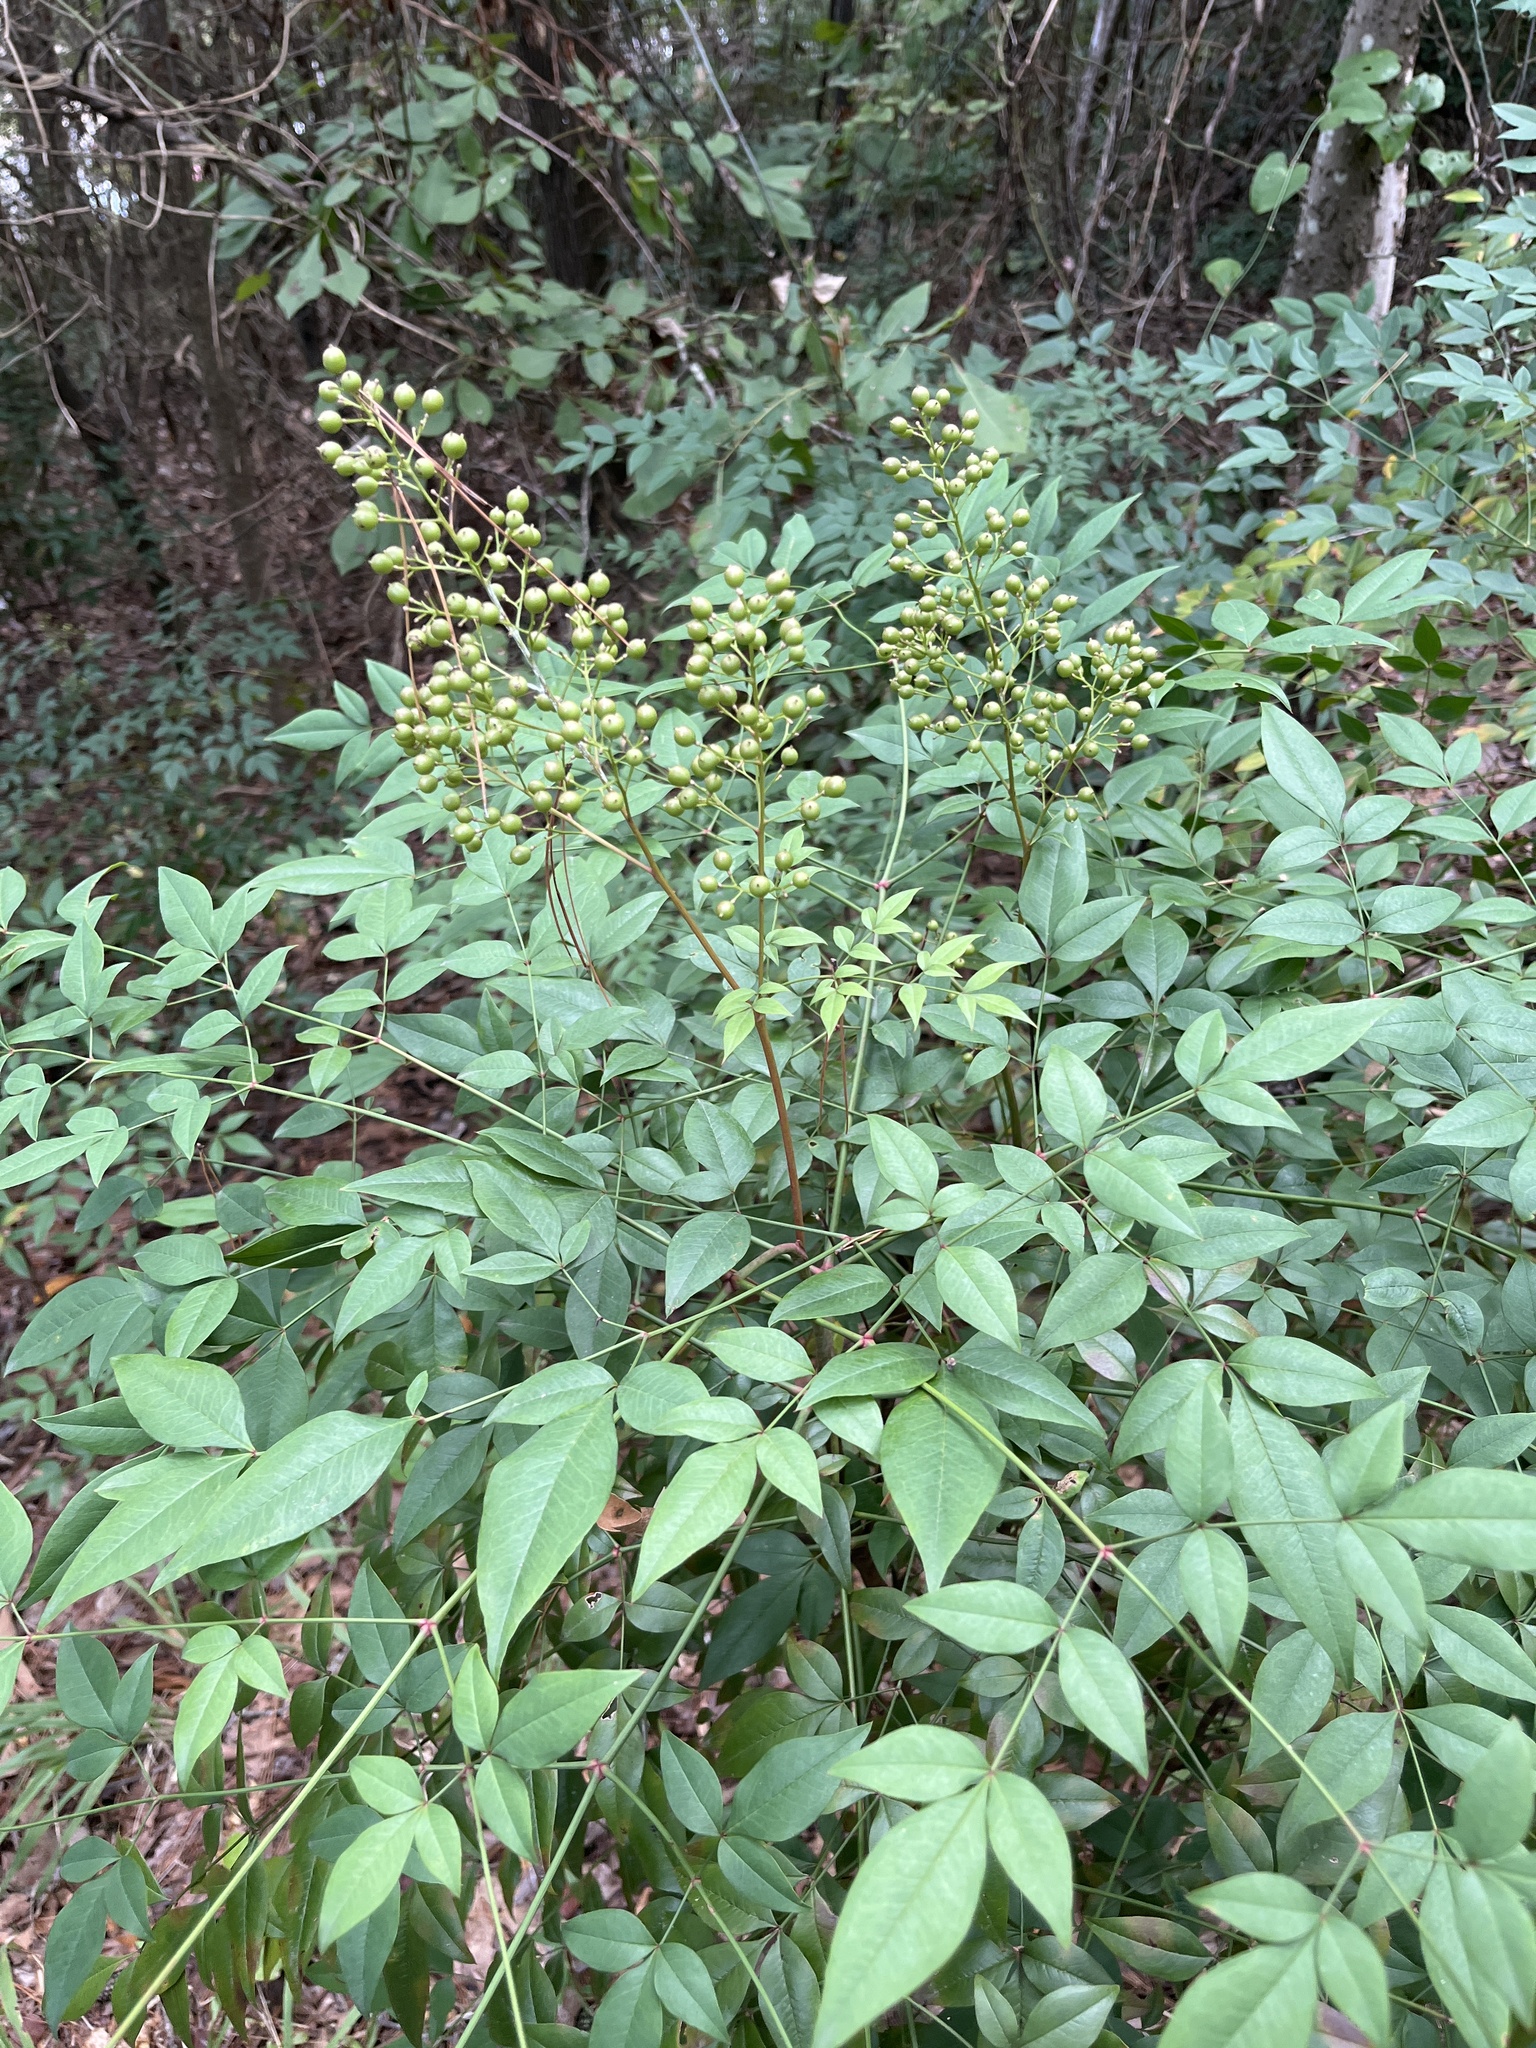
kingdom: Plantae
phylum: Tracheophyta
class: Magnoliopsida
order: Ranunculales
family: Berberidaceae
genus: Nandina
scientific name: Nandina domestica
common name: Sacred bamboo
